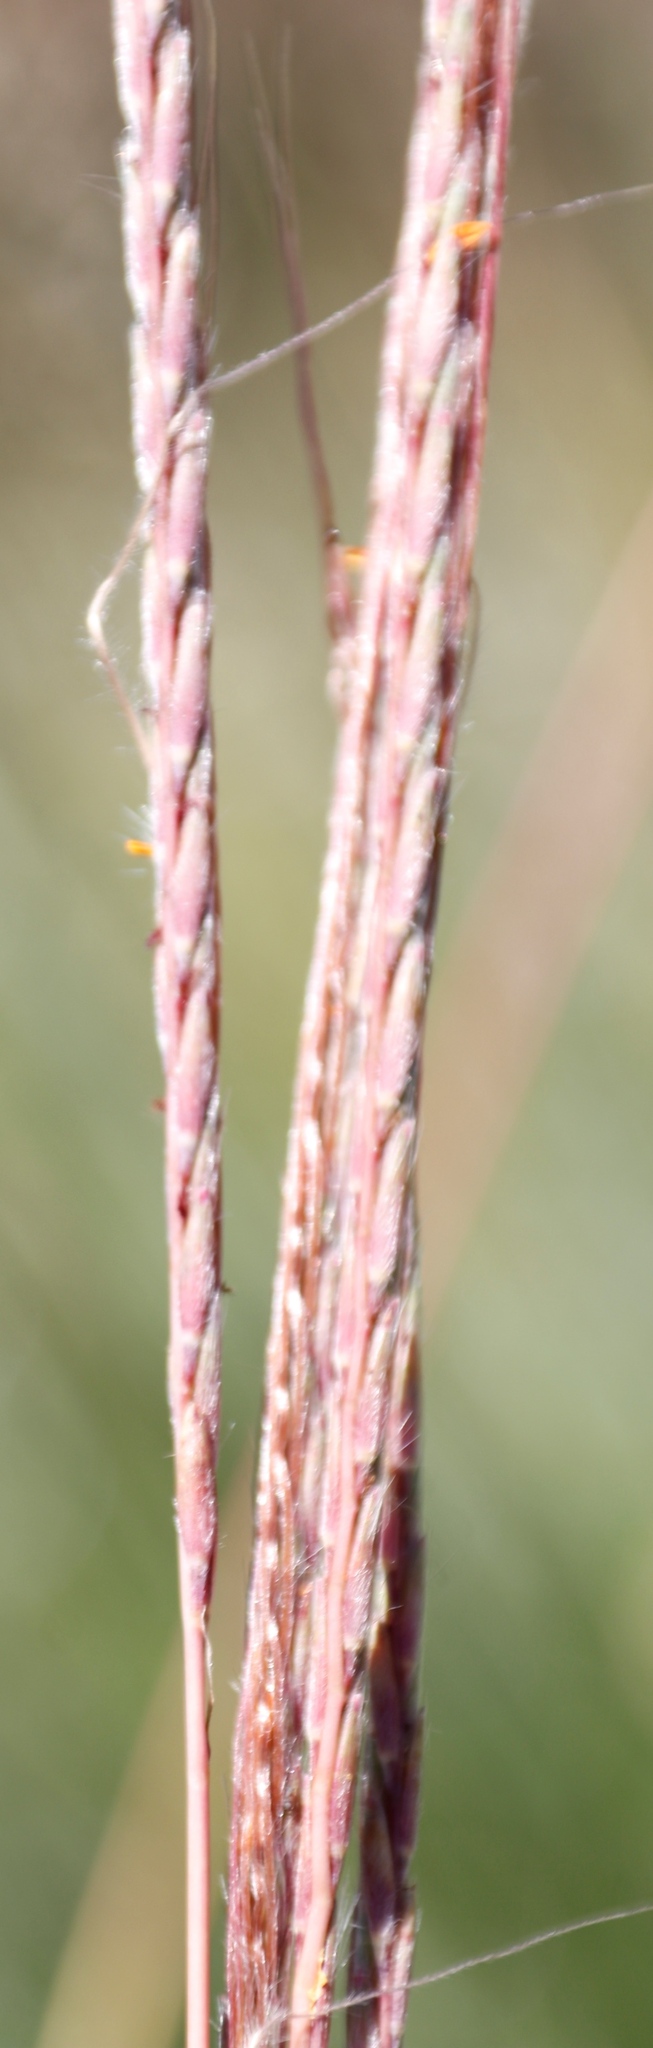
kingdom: Plantae
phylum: Tracheophyta
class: Liliopsida
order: Poales
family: Poaceae
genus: Trachypogon
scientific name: Trachypogon spicatus
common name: Crinkle-awn
